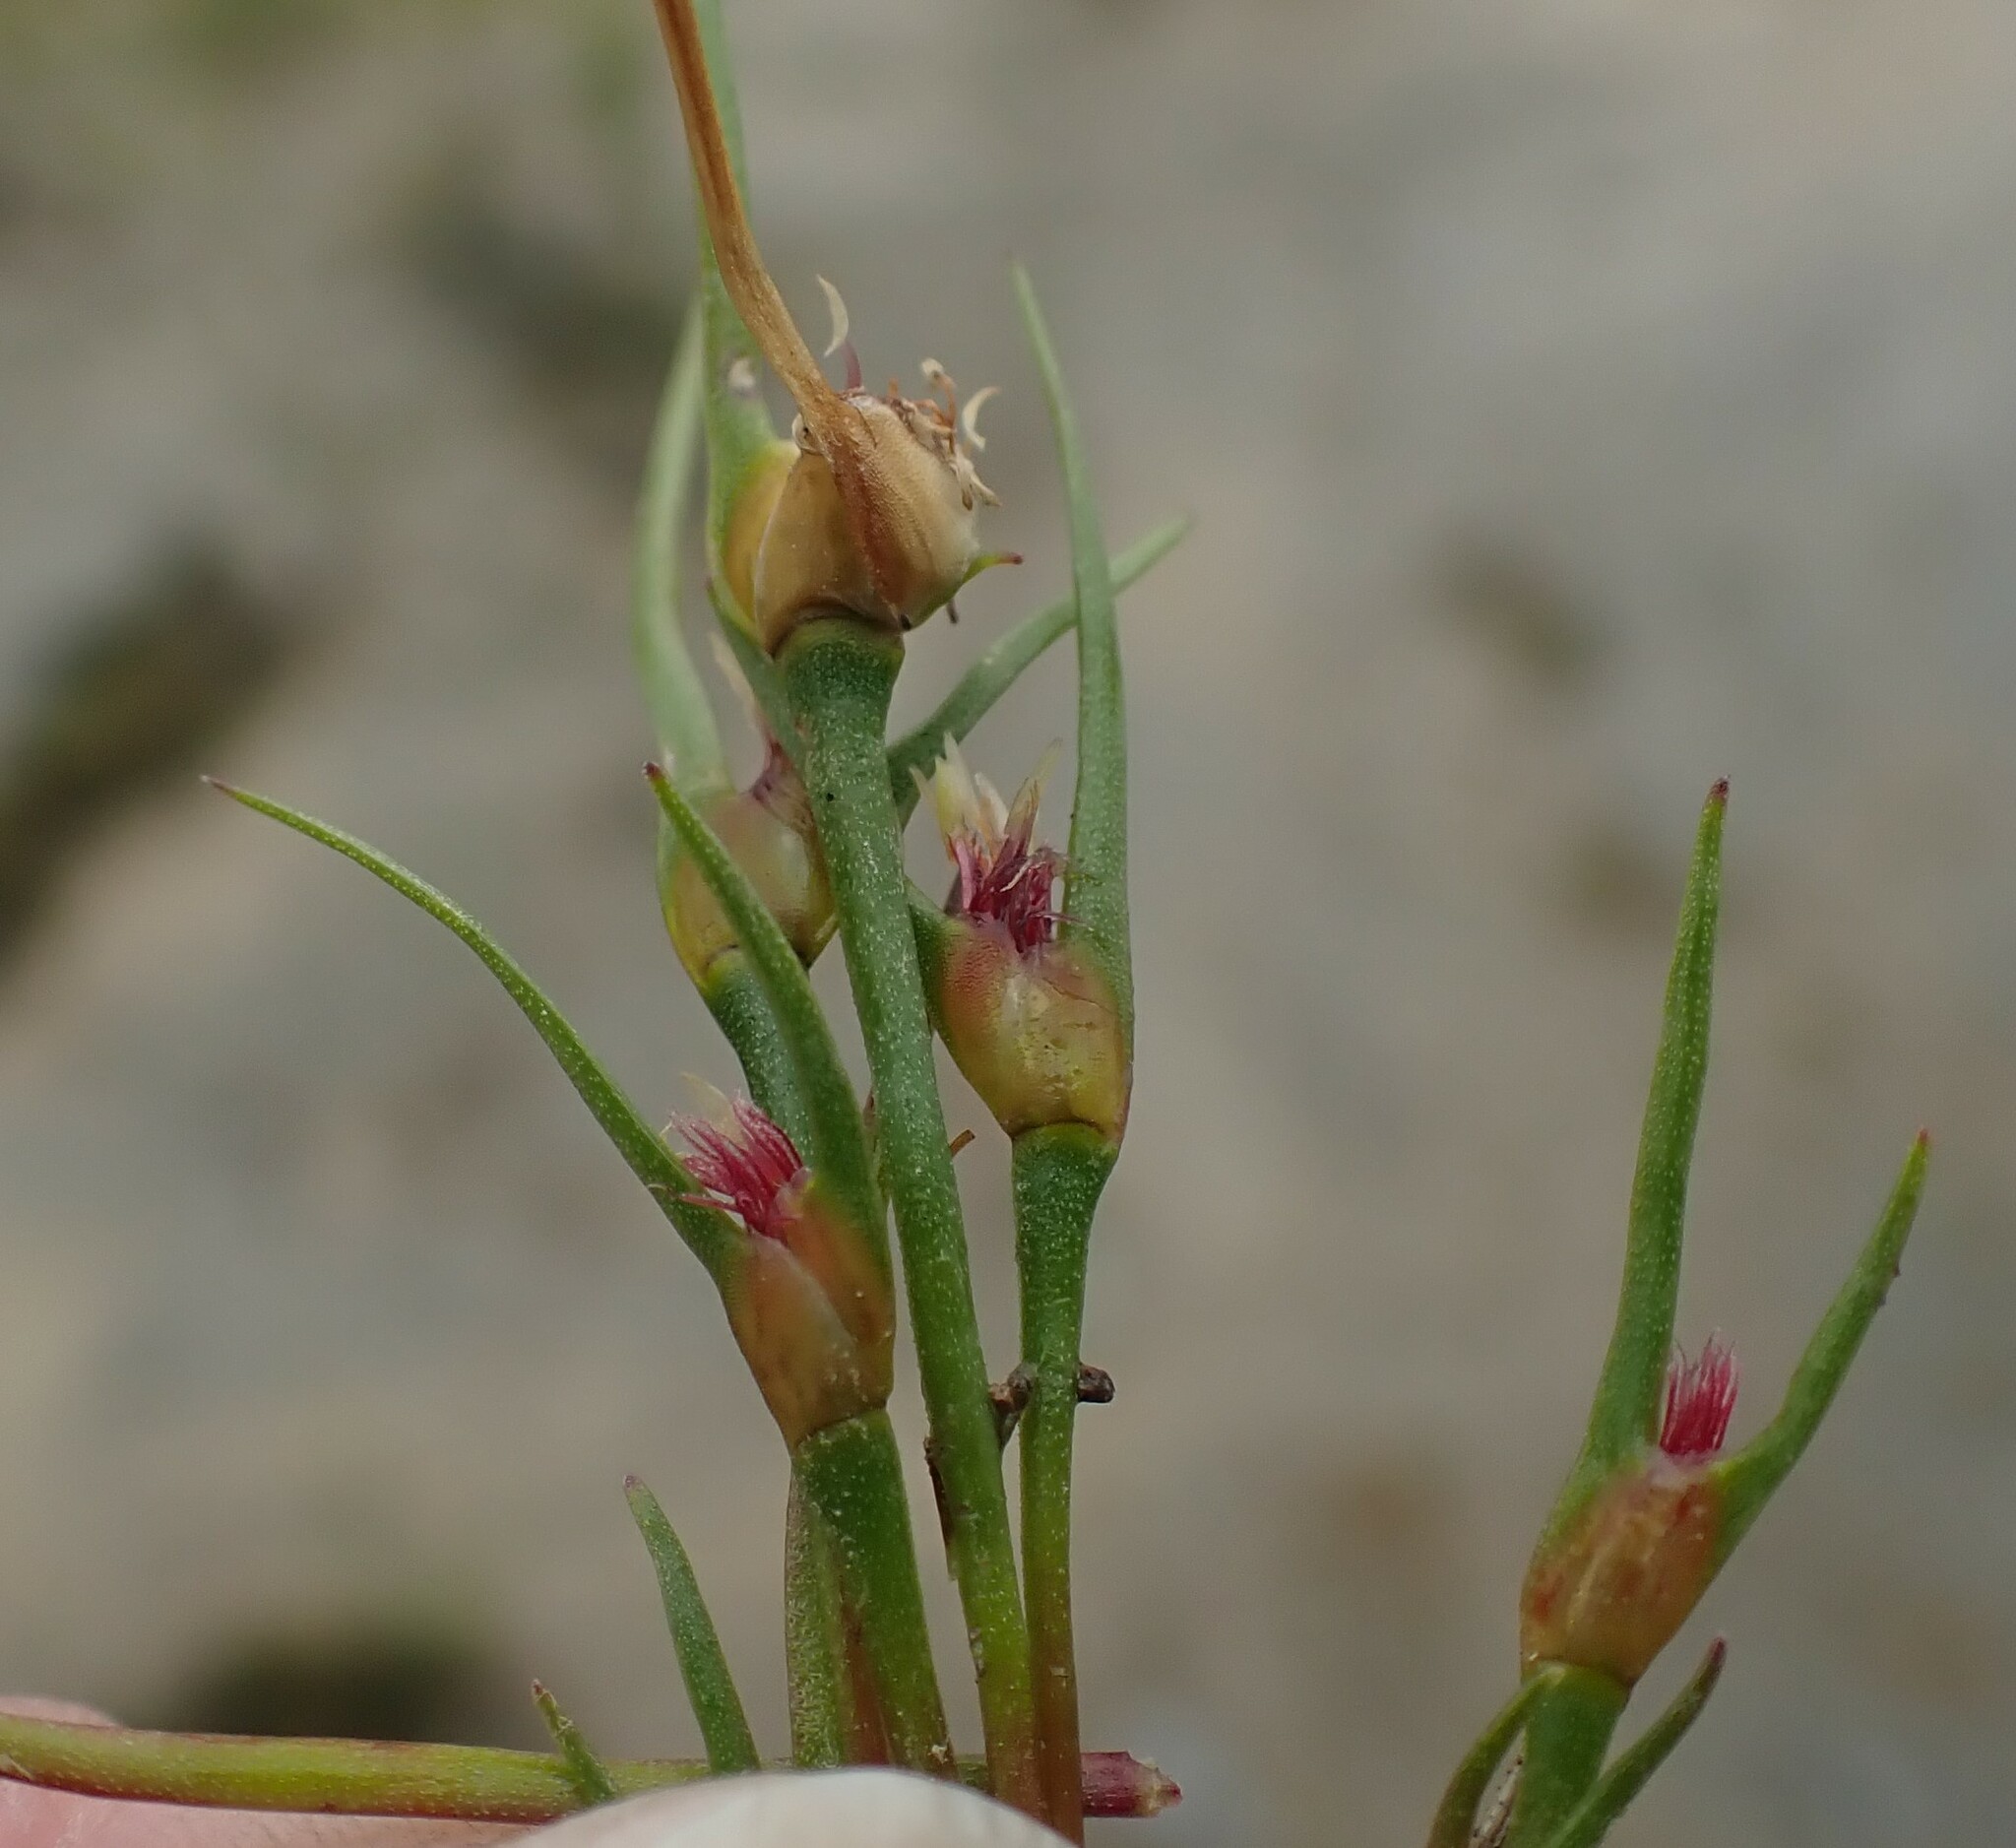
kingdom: Plantae
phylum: Tracheophyta
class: Liliopsida
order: Poales
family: Restionaceae
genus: Centrolepis
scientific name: Centrolepis aristata
